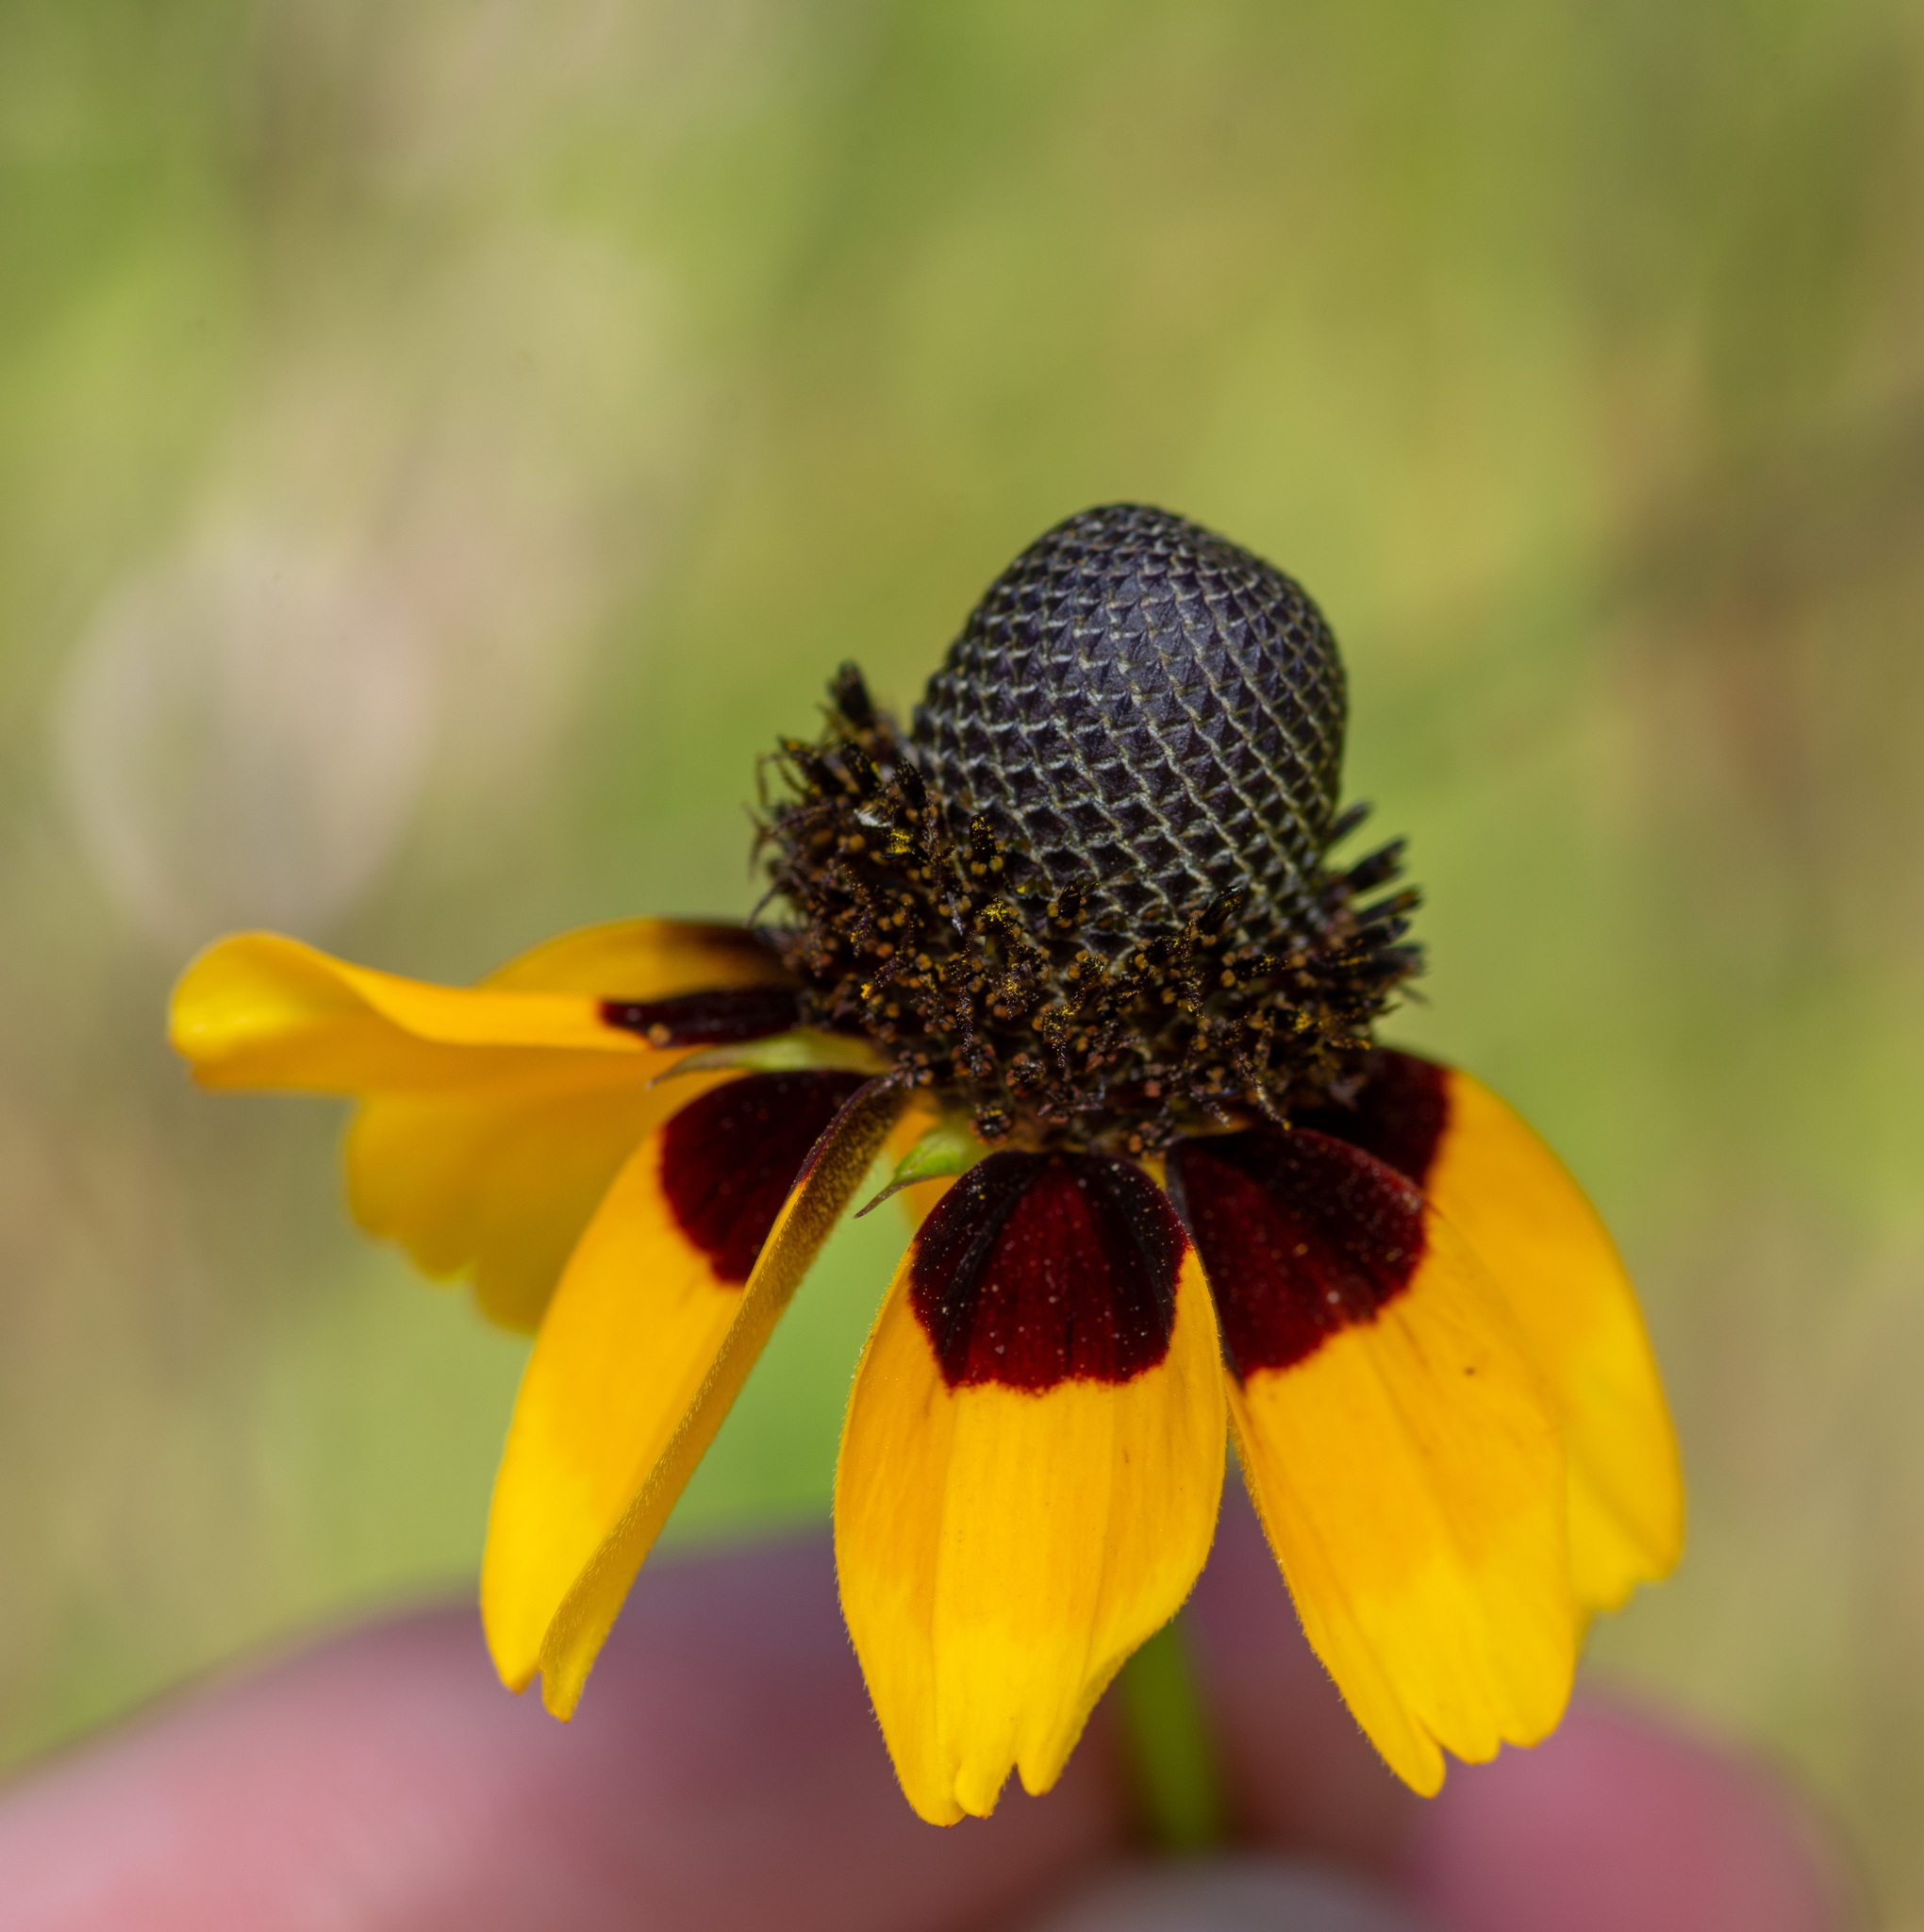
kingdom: Plantae
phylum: Tracheophyta
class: Magnoliopsida
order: Asterales
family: Asteraceae
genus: Rudbeckia
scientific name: Rudbeckia amplexicaulis
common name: Clasping-leaf coneflower
